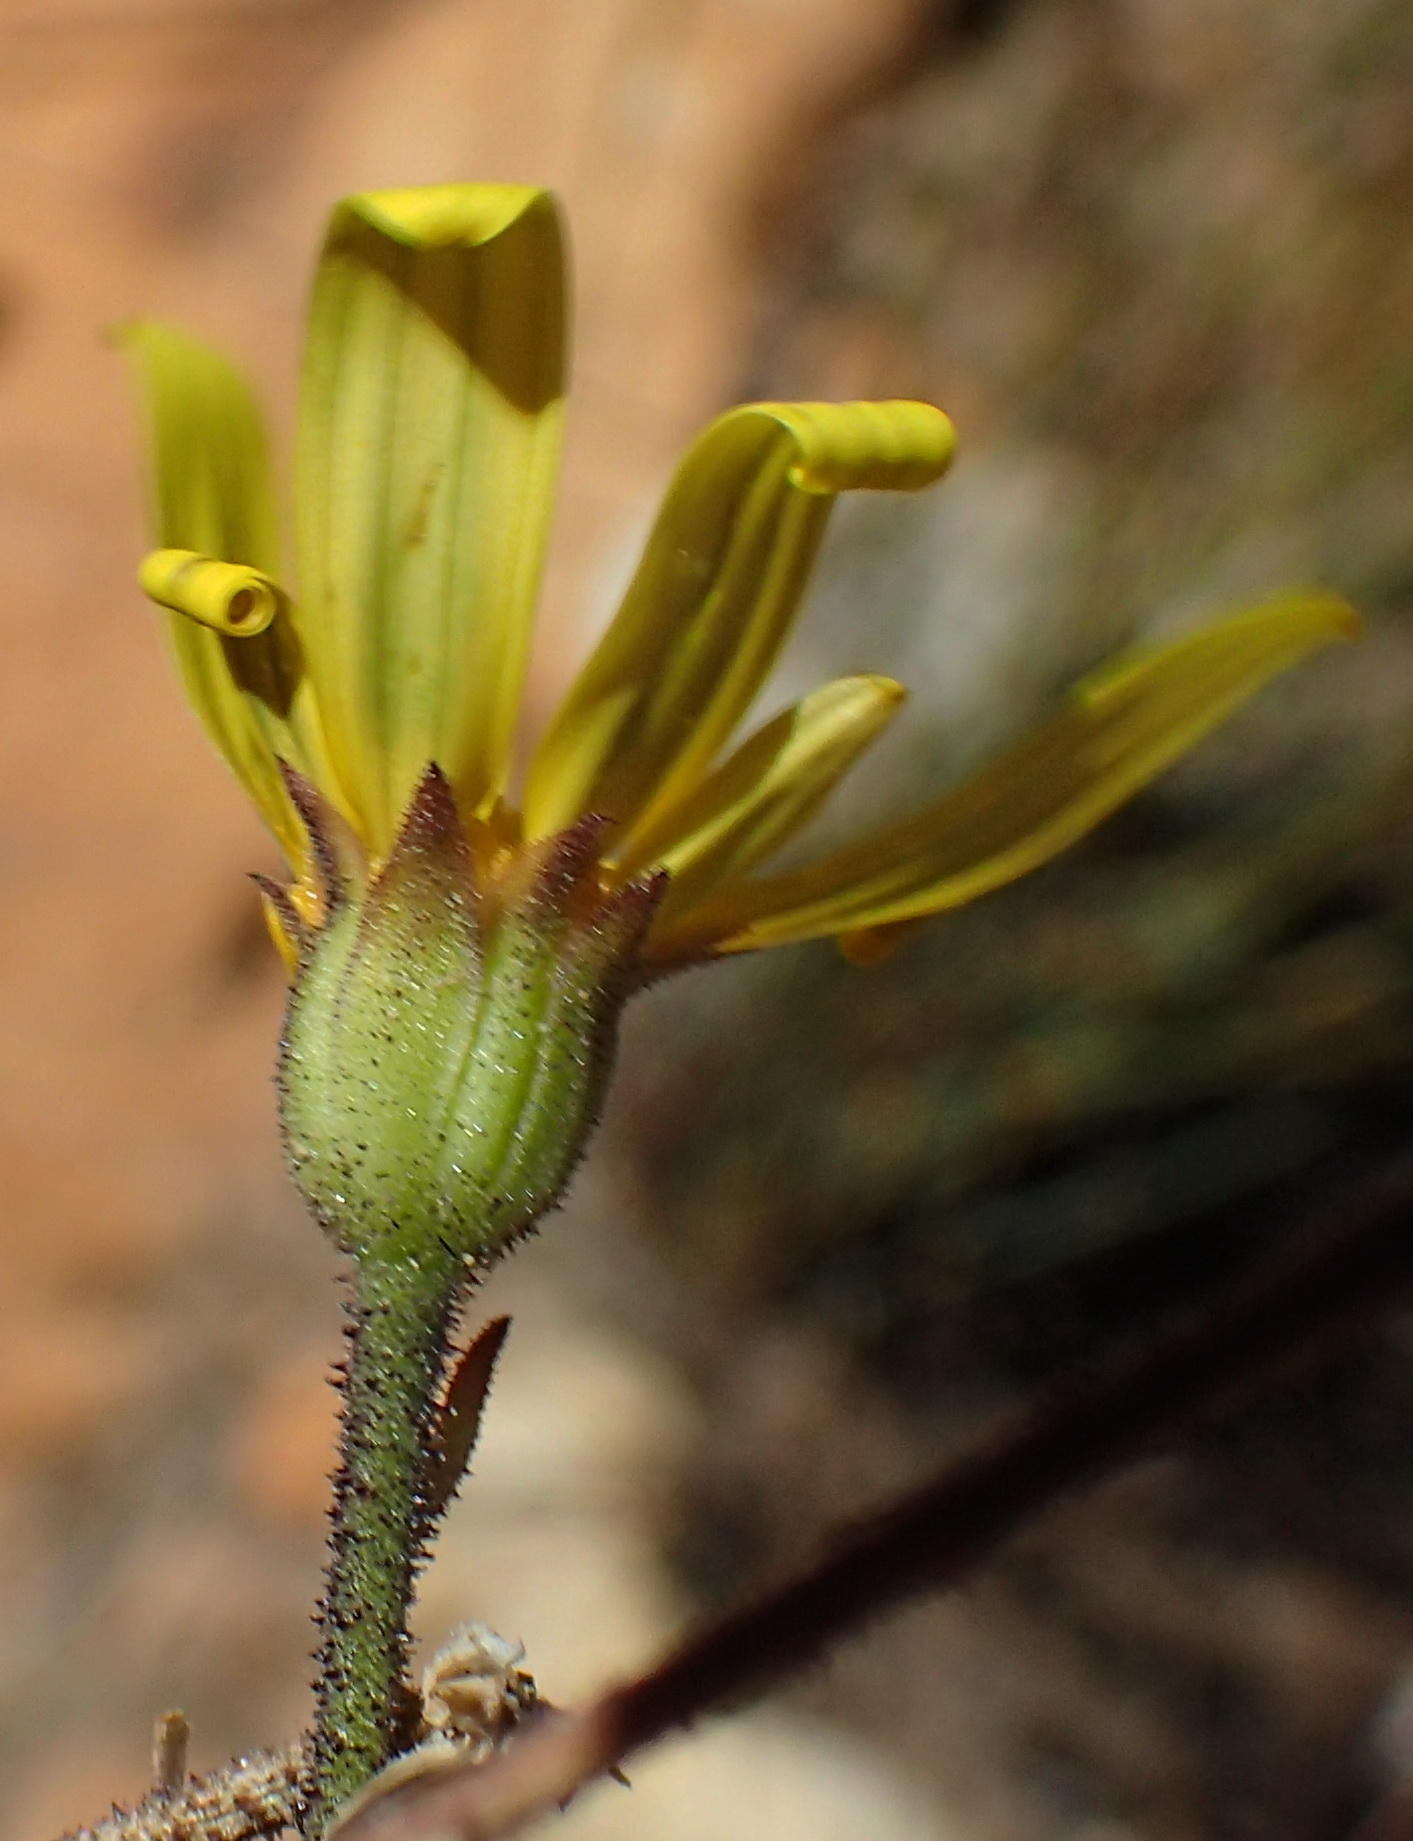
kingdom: Plantae
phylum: Tracheophyta
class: Magnoliopsida
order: Asterales
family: Asteraceae
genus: Osteospermum
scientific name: Osteospermum polygaloides
